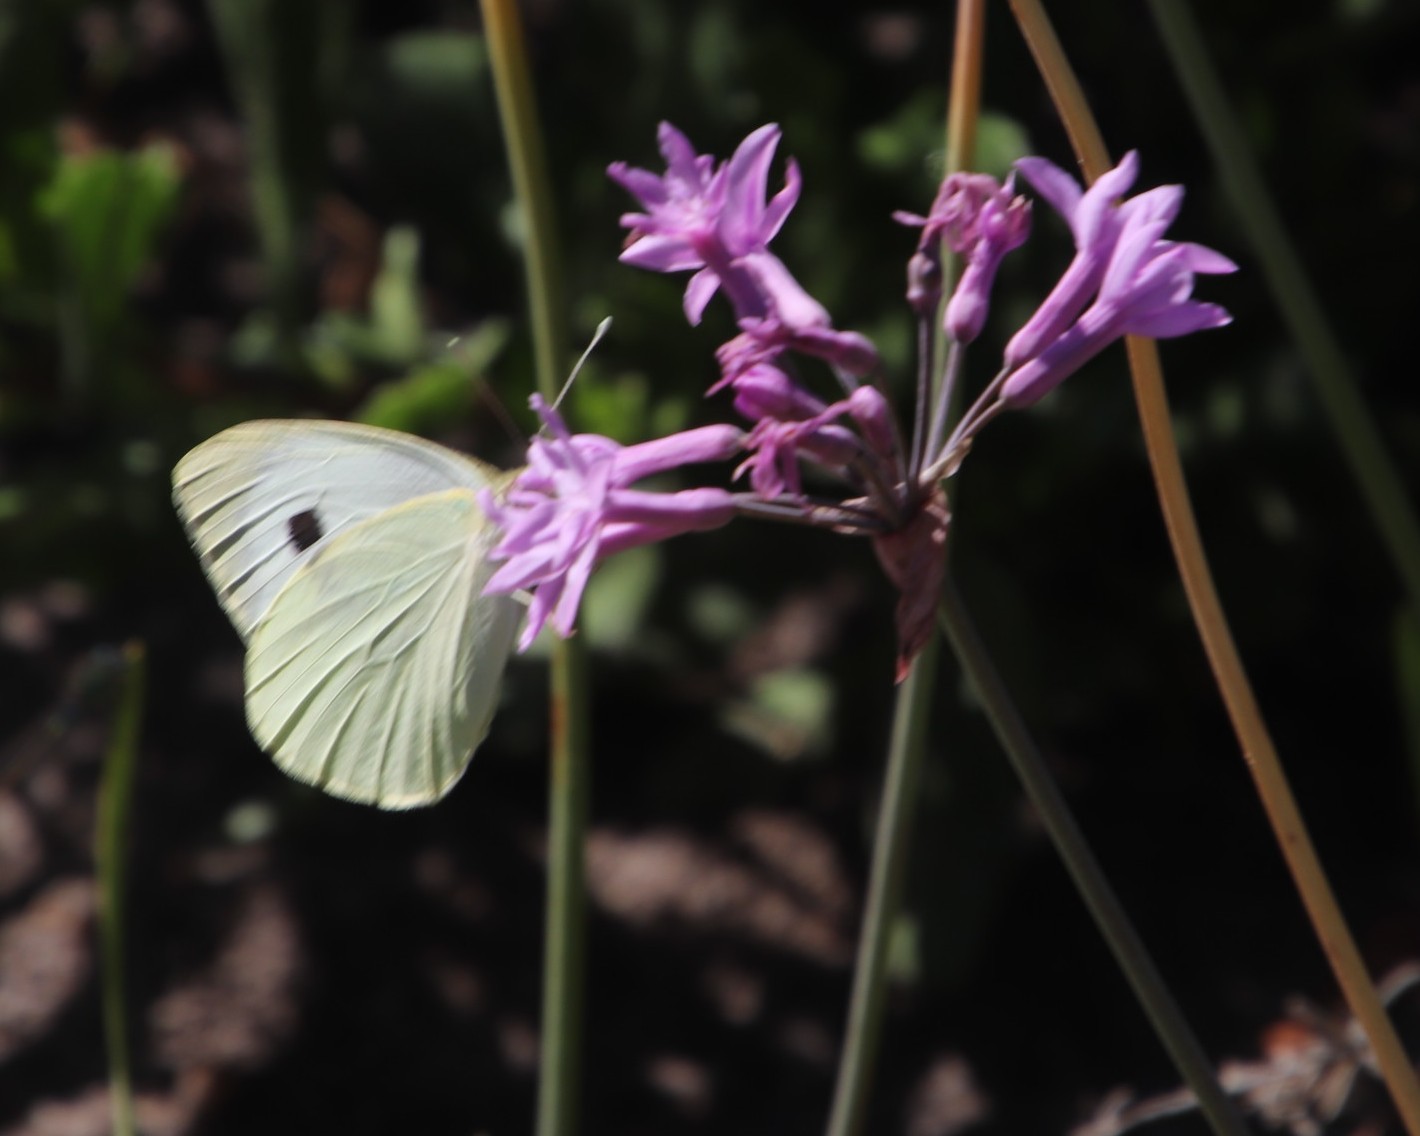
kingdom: Animalia
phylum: Arthropoda
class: Insecta
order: Lepidoptera
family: Pieridae
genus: Pieris
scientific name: Pieris brassicae
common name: Large white
